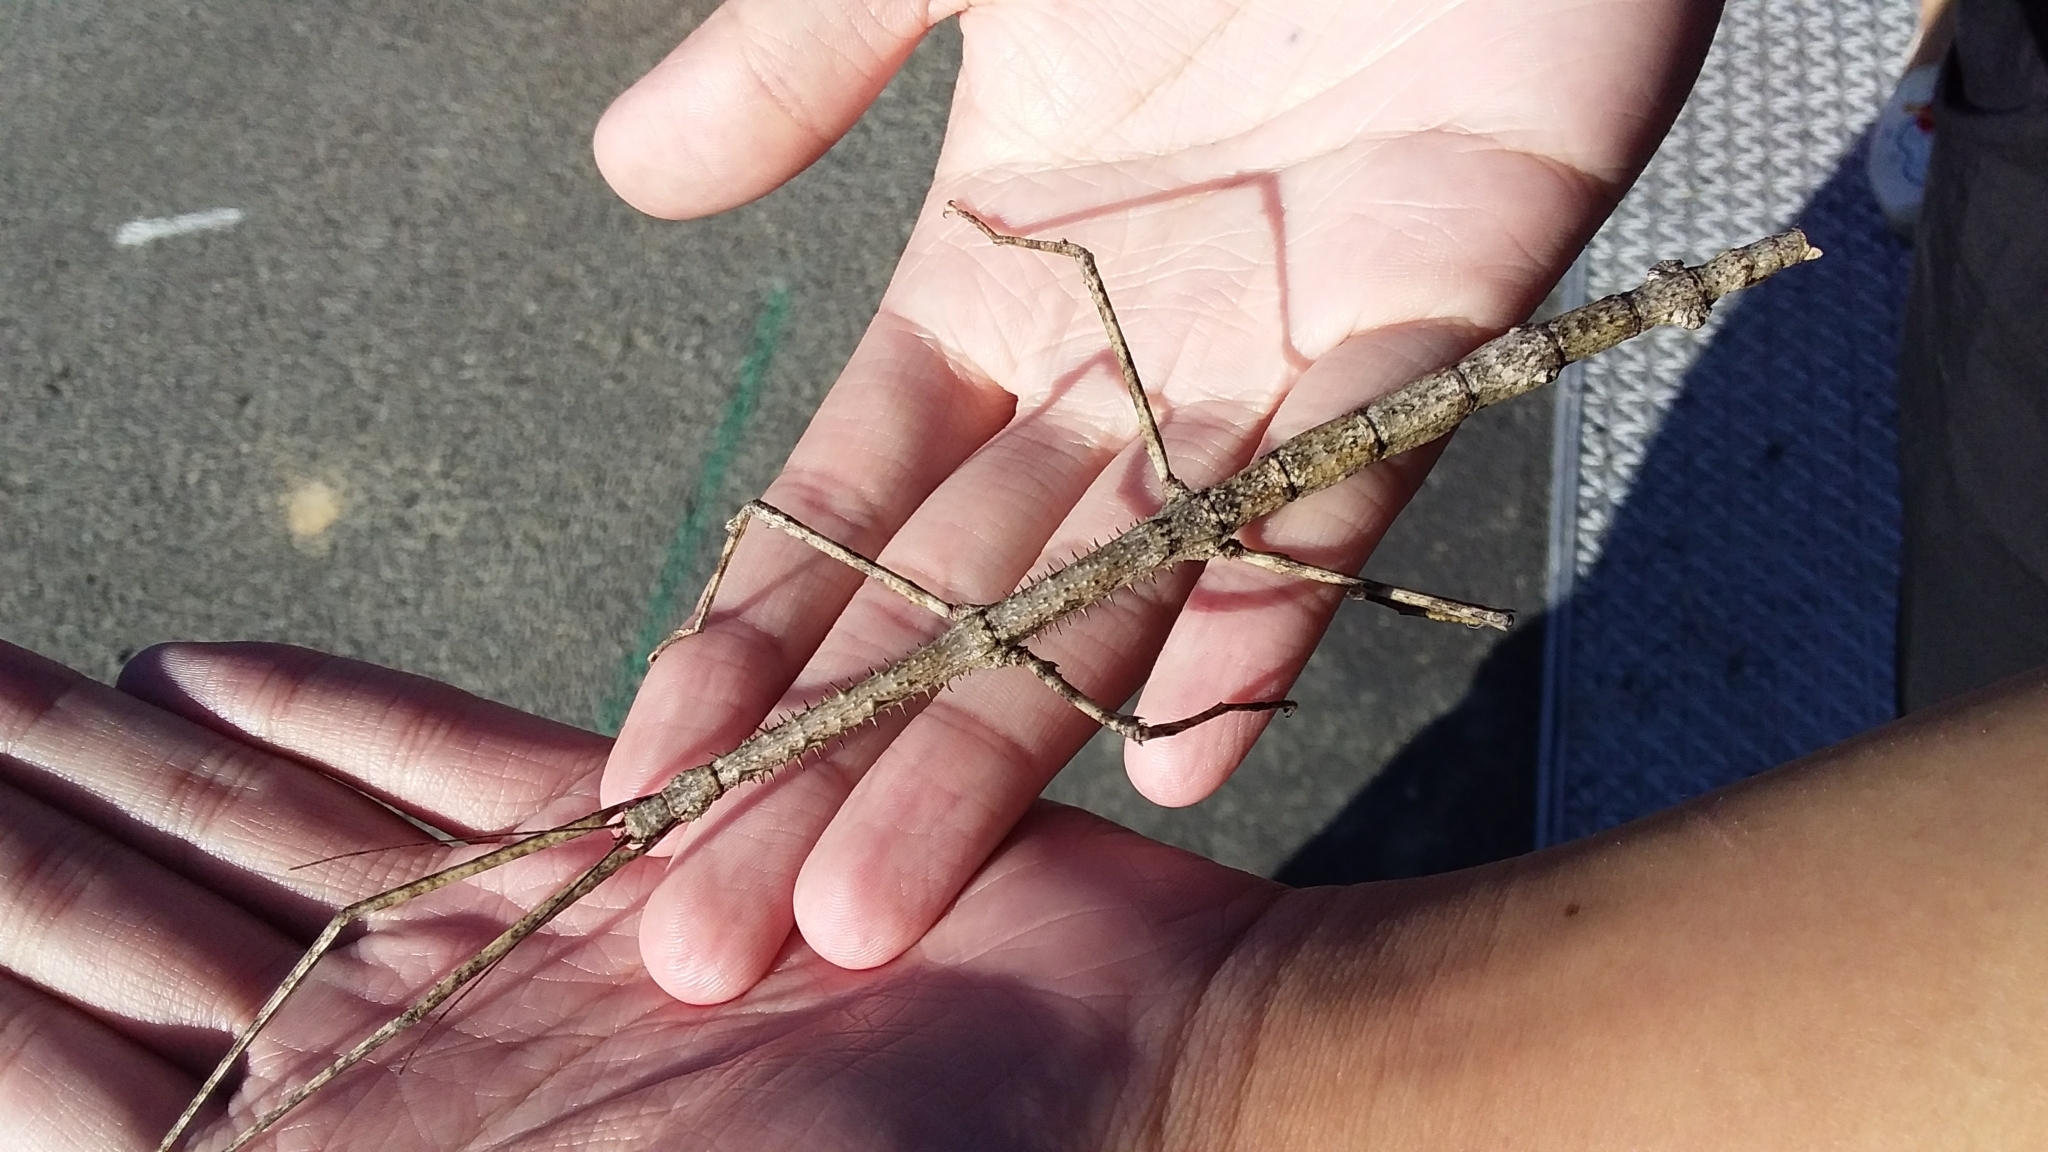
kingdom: Animalia
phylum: Arthropoda
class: Insecta
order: Phasmida
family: Phasmatidae
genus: Argosarchus
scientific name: Argosarchus horridus
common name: Bristly stick insect
